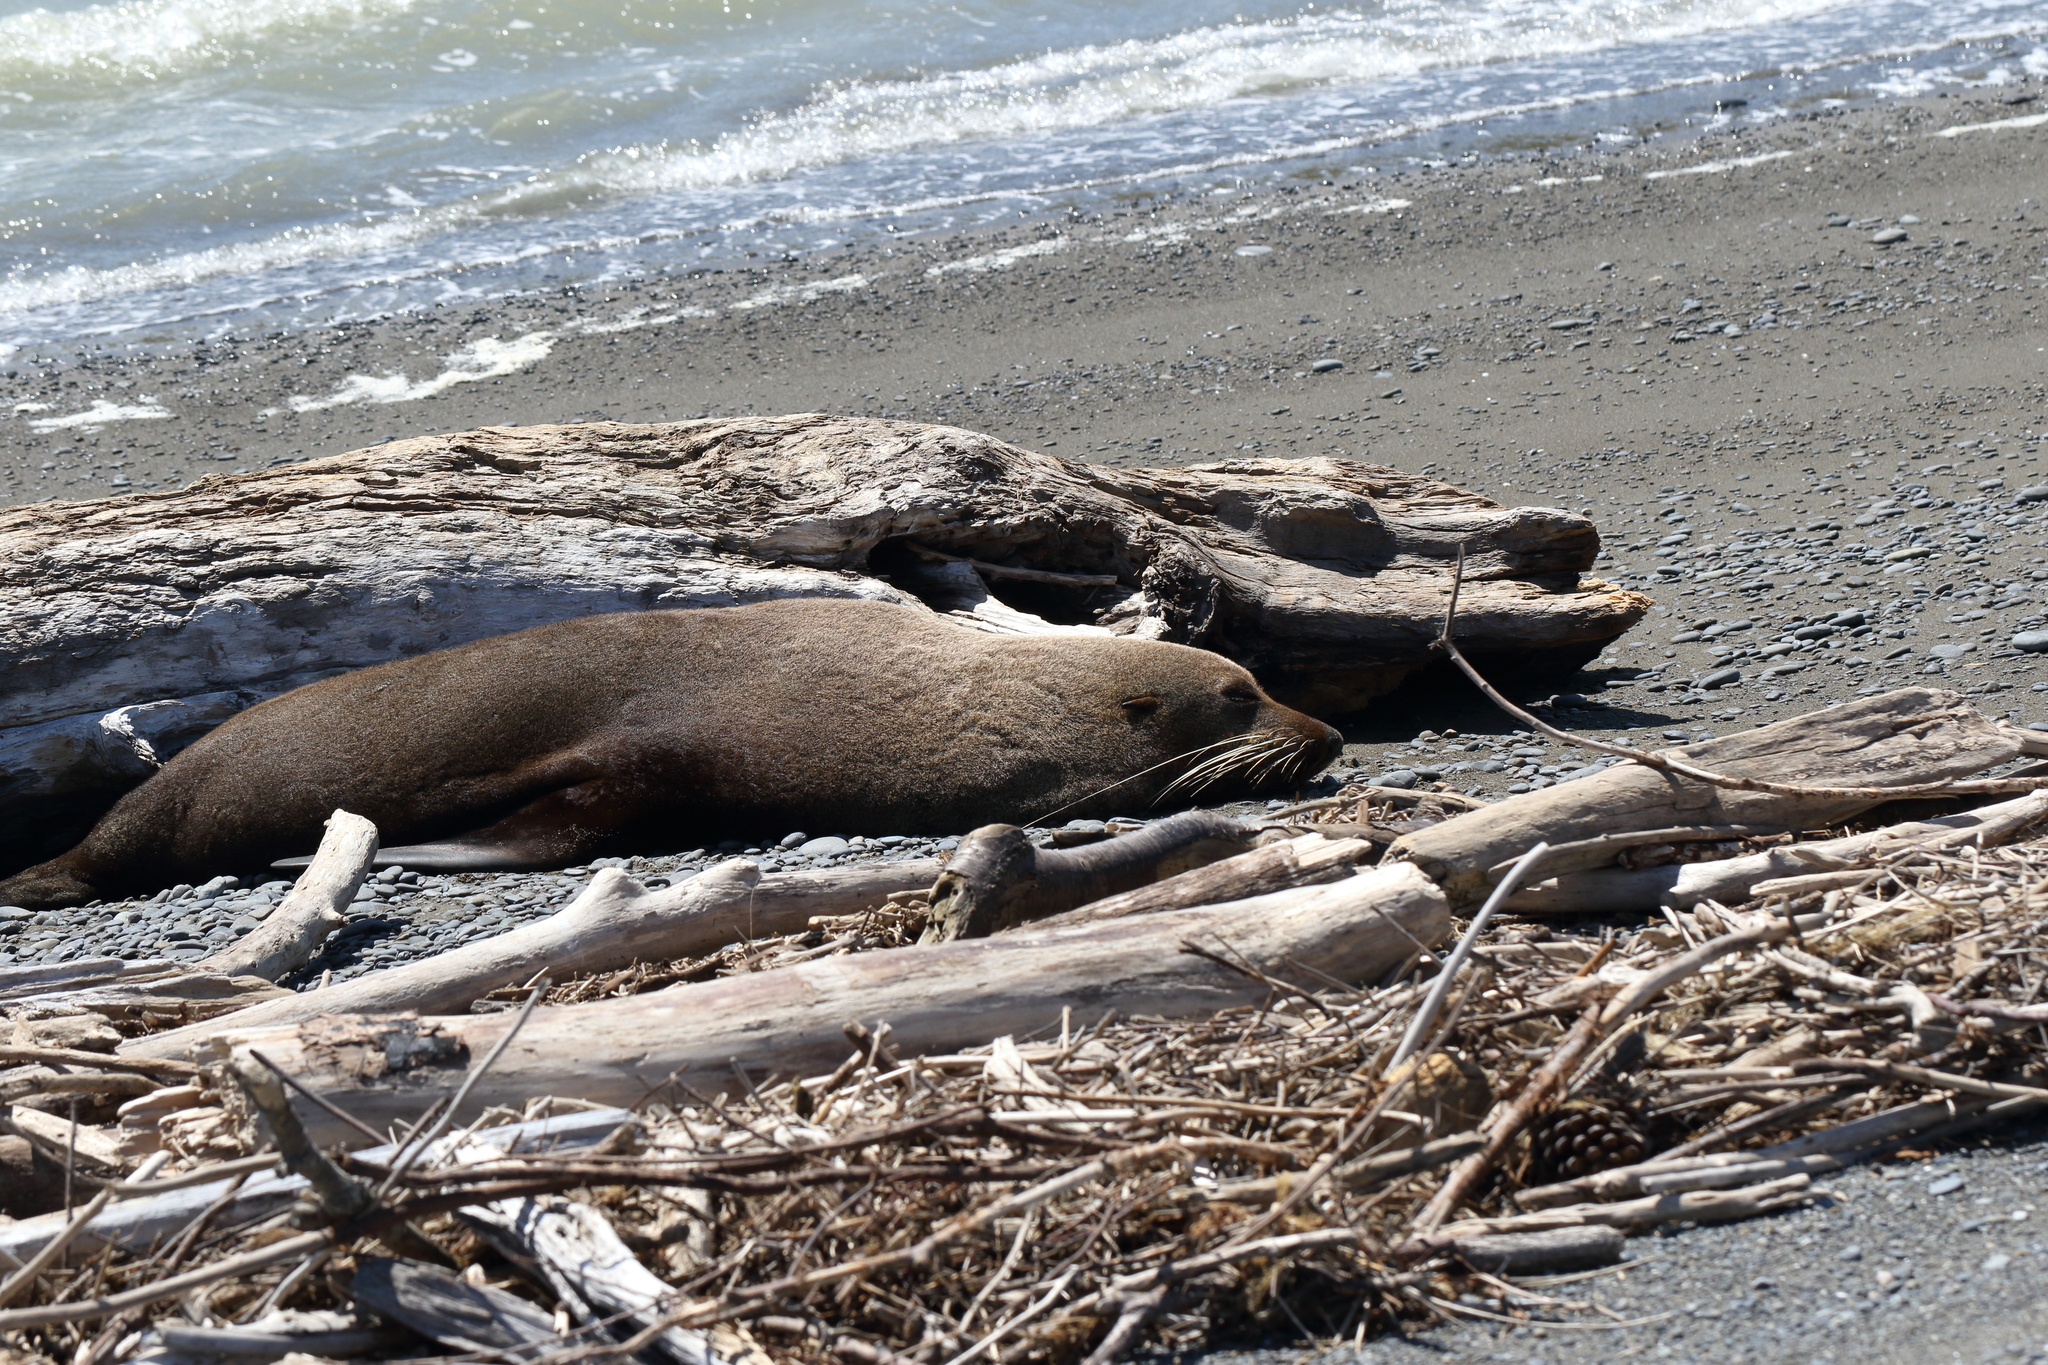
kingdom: Animalia
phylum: Chordata
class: Mammalia
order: Carnivora
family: Otariidae
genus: Arctocephalus
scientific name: Arctocephalus forsteri
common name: New zealand fur seal
